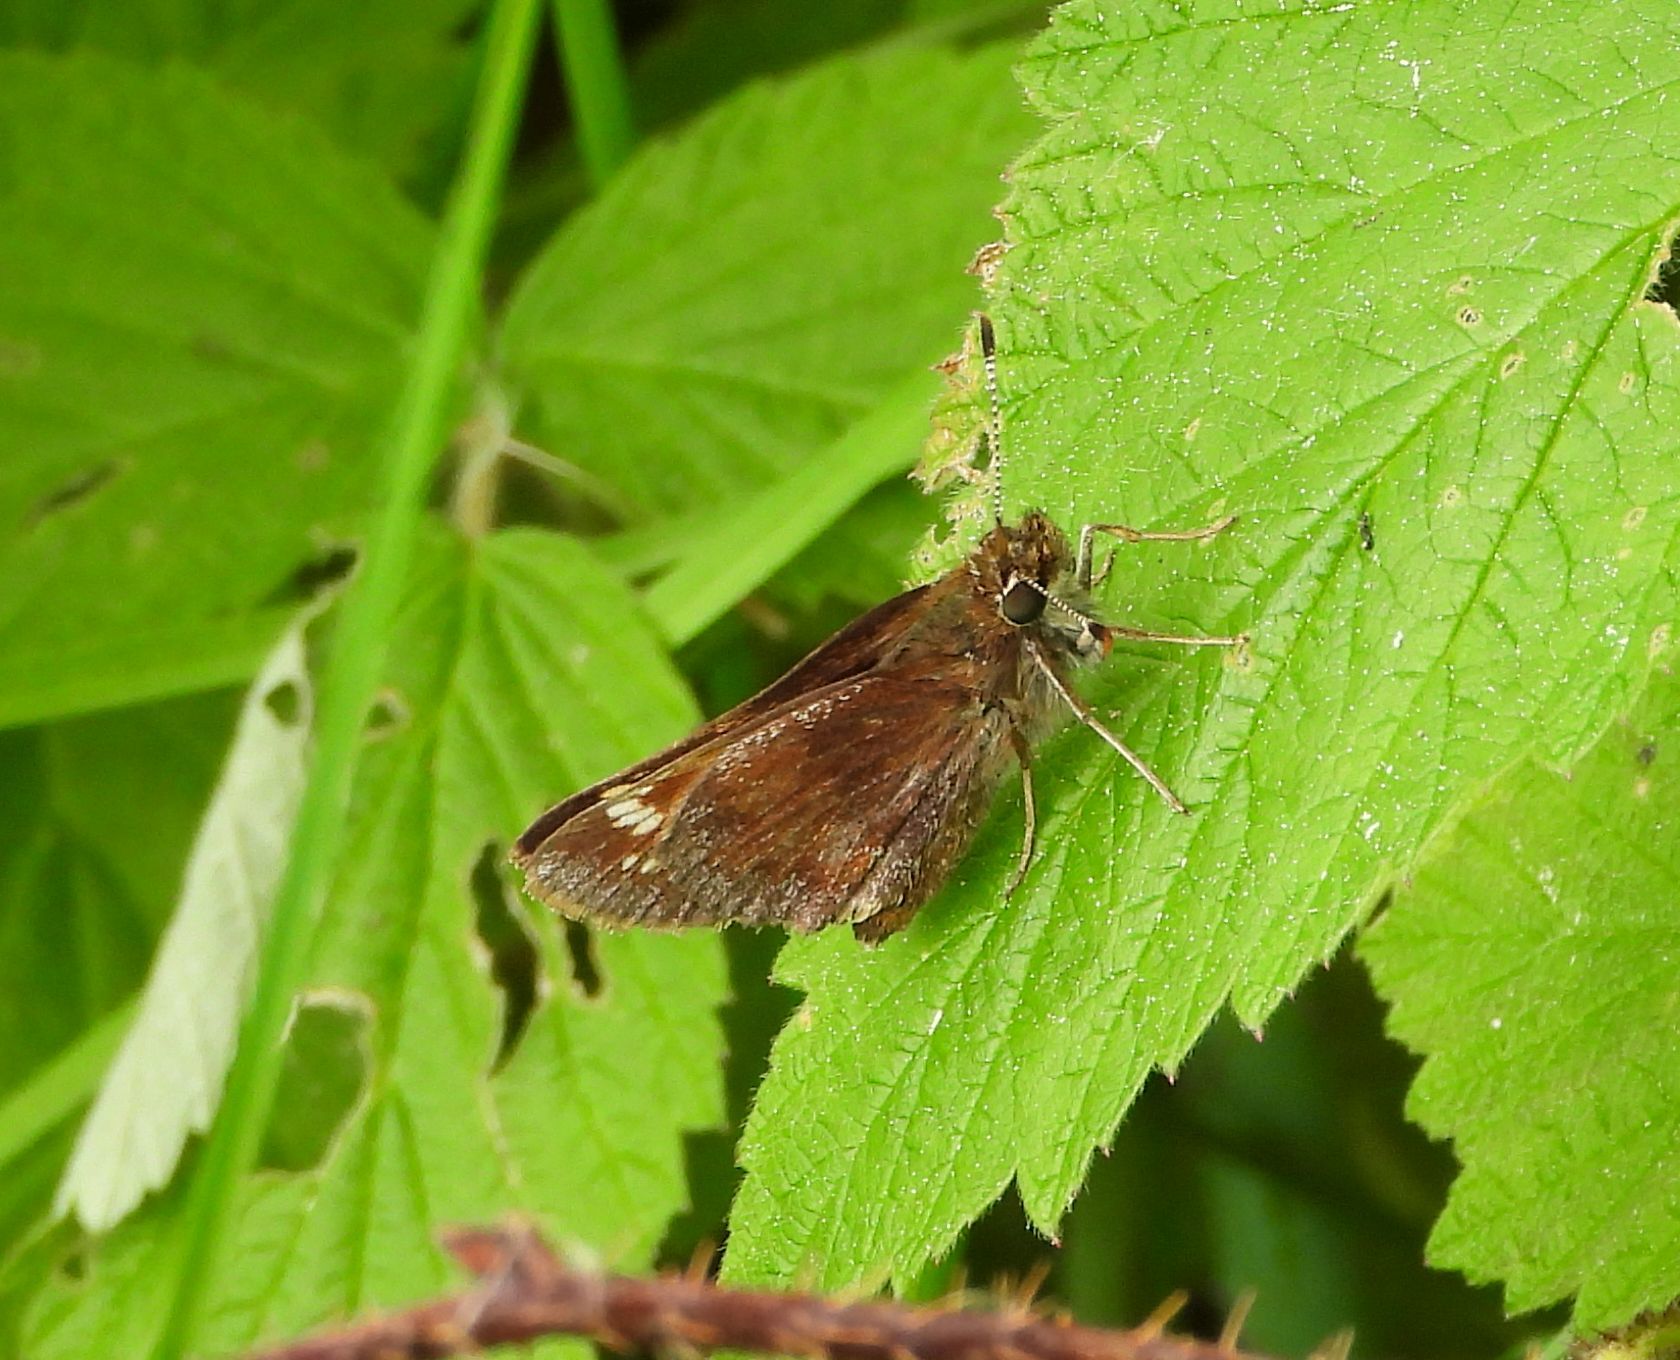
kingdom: Animalia
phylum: Arthropoda
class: Insecta
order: Lepidoptera
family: Hesperiidae
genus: Lon
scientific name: Lon hobomok
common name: Hobomok skipper
